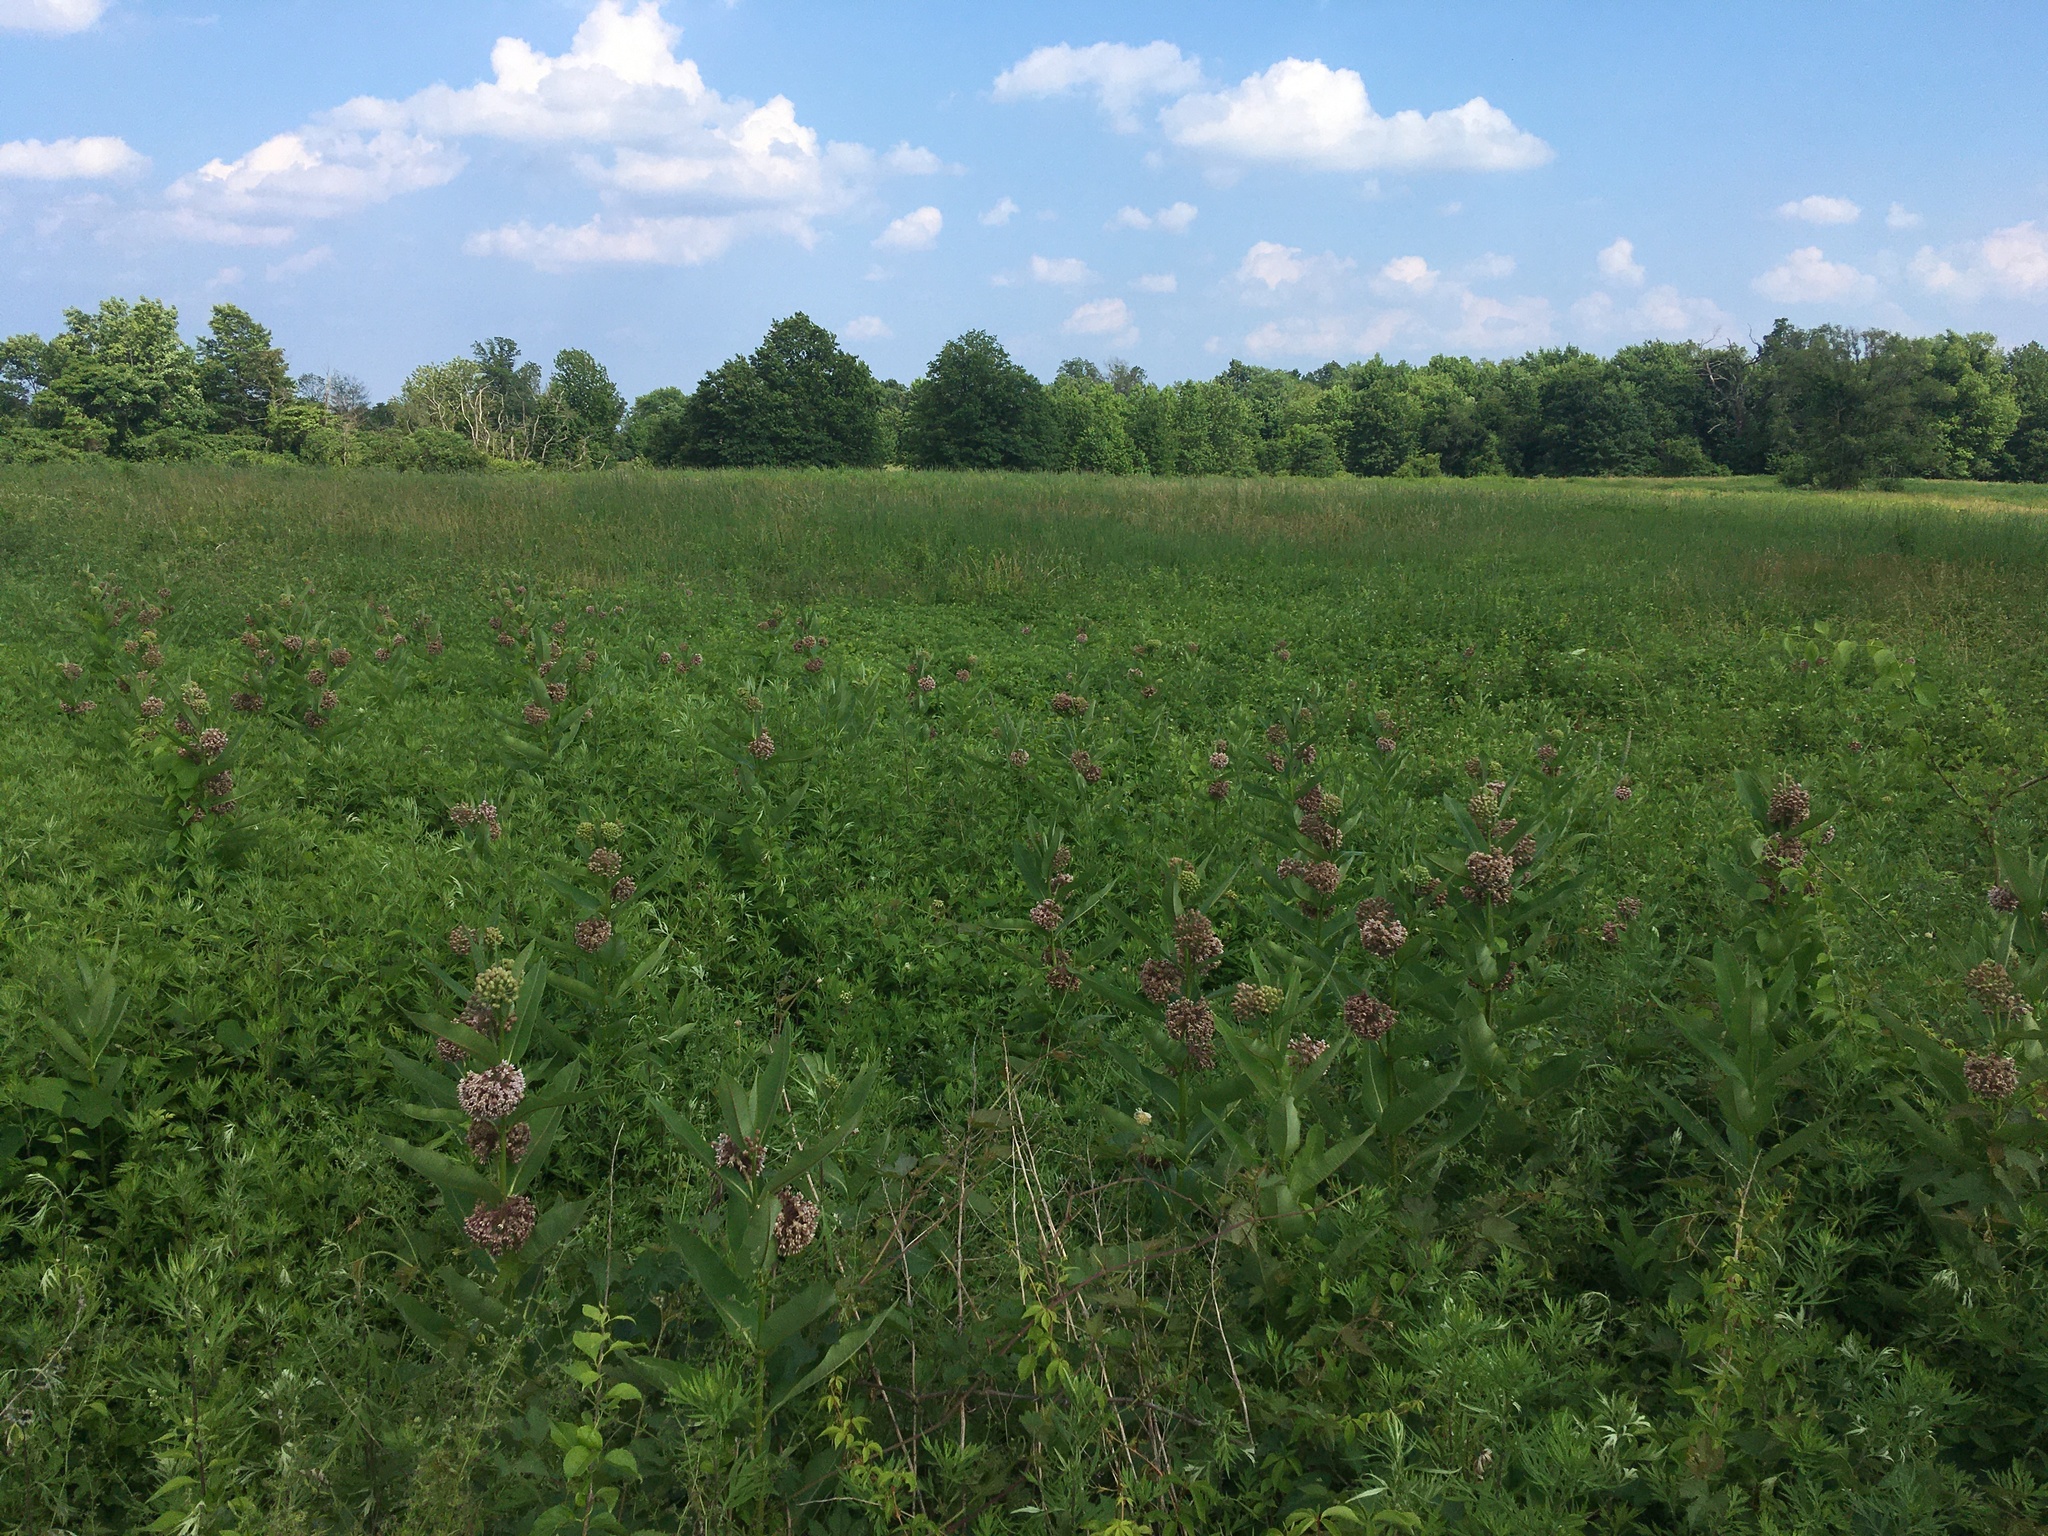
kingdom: Plantae
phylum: Tracheophyta
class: Magnoliopsida
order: Gentianales
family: Apocynaceae
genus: Asclepias
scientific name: Asclepias syriaca
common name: Common milkweed
